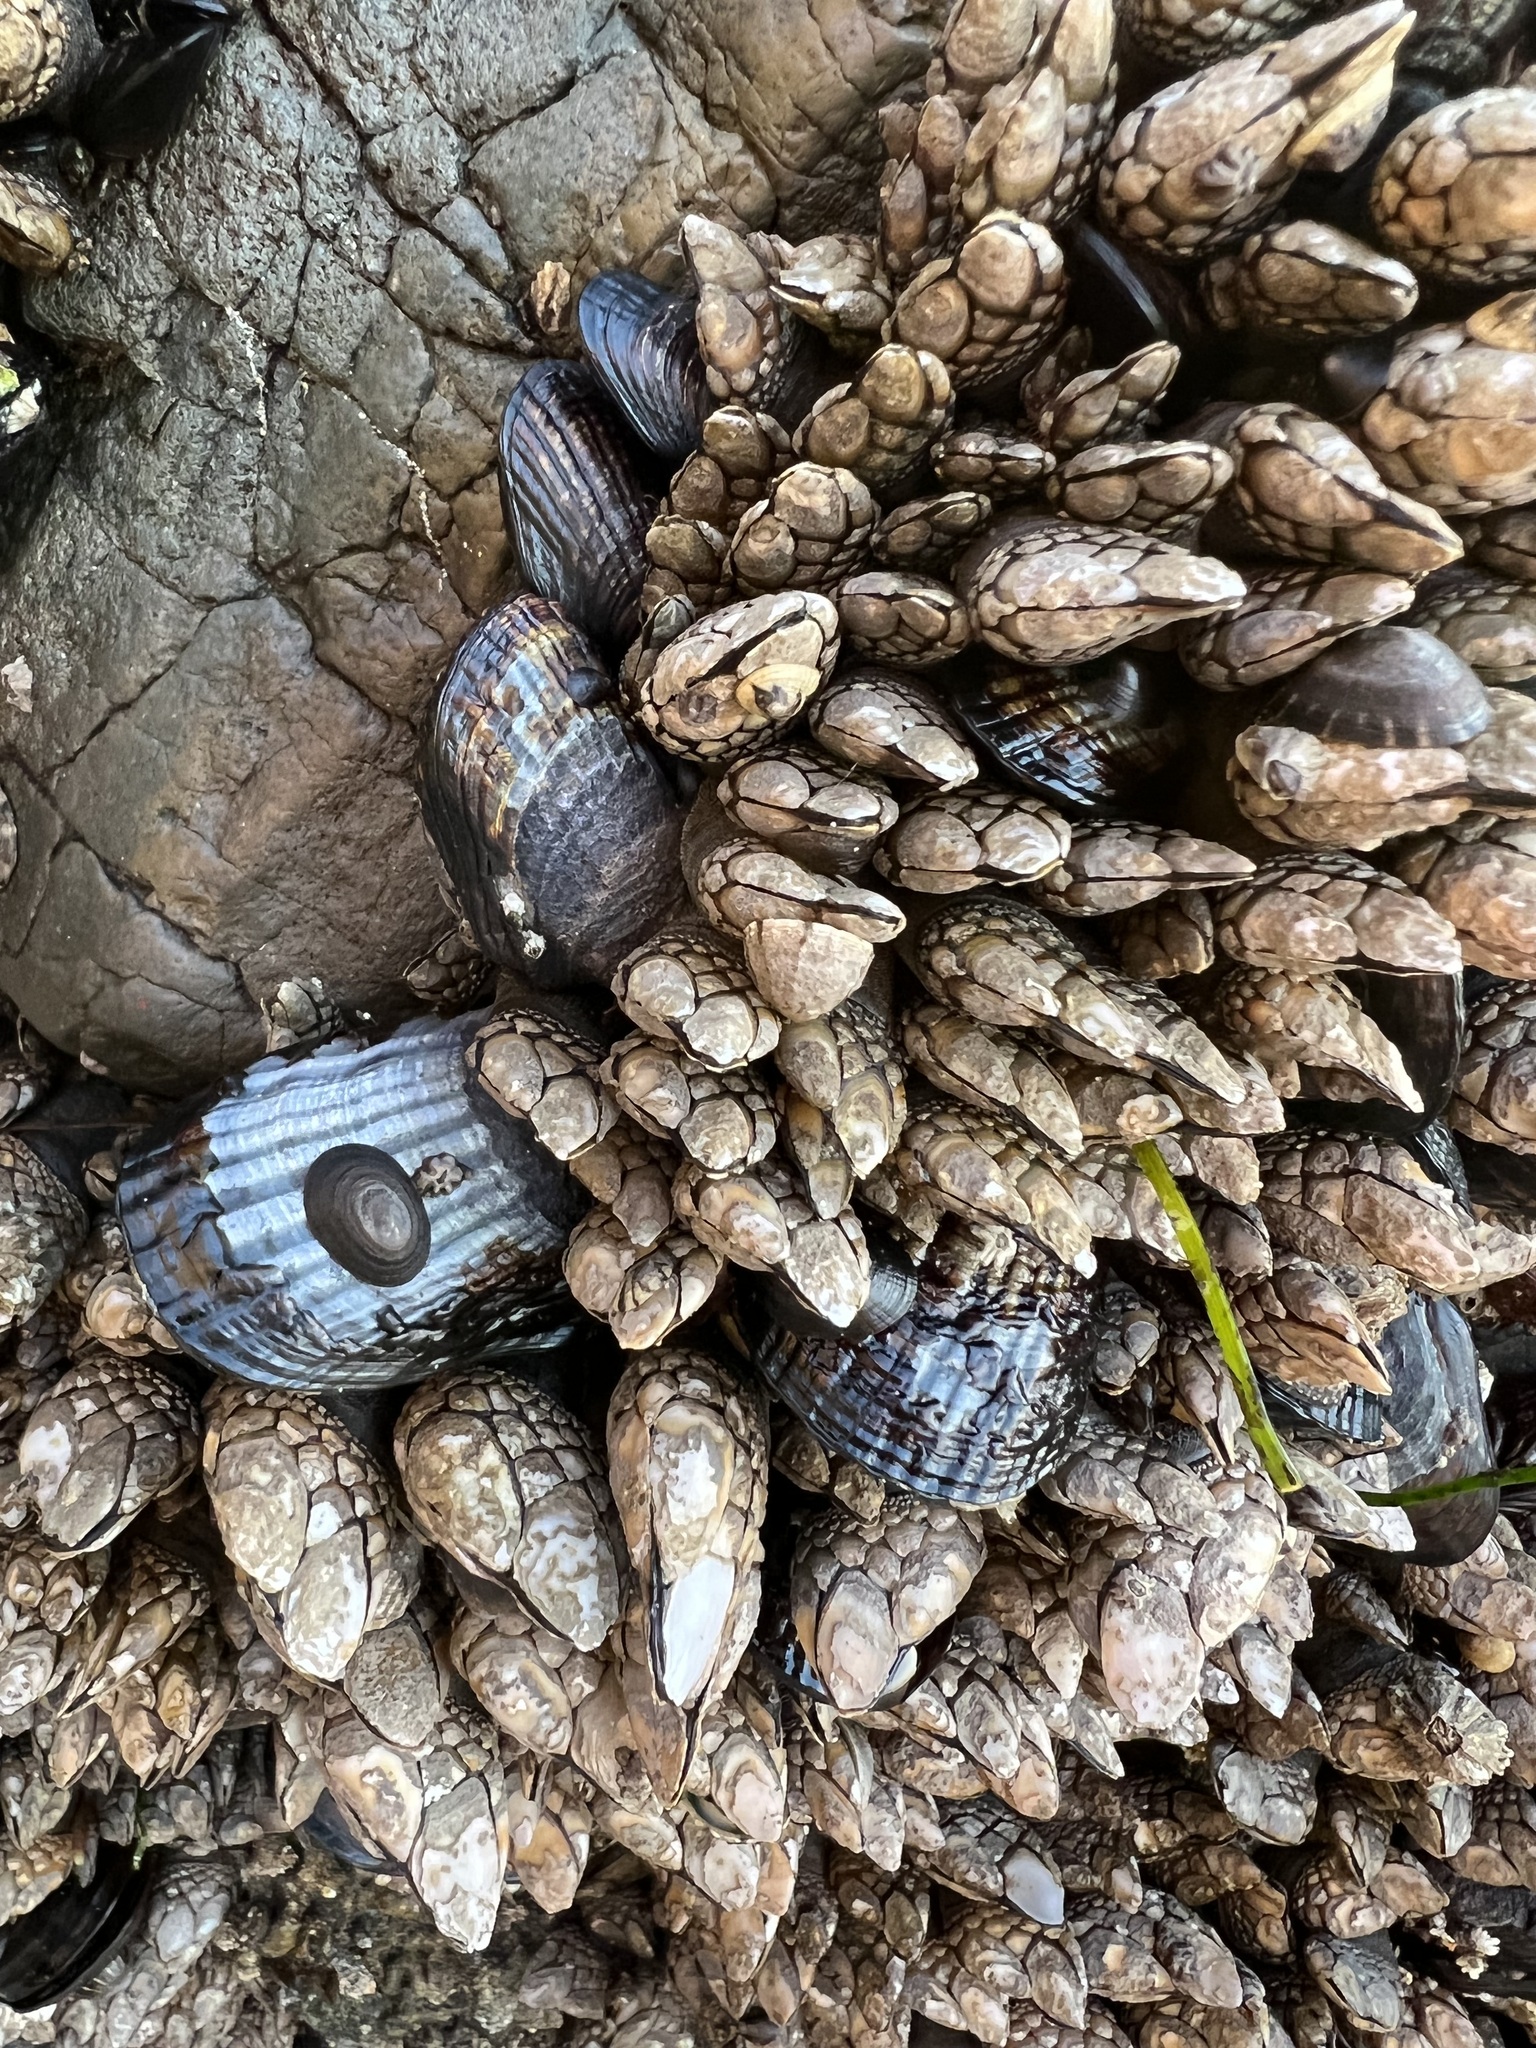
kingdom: Animalia
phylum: Arthropoda
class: Maxillopoda
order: Pedunculata
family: Pollicipedidae
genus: Pollicipes
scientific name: Pollicipes polymerus
